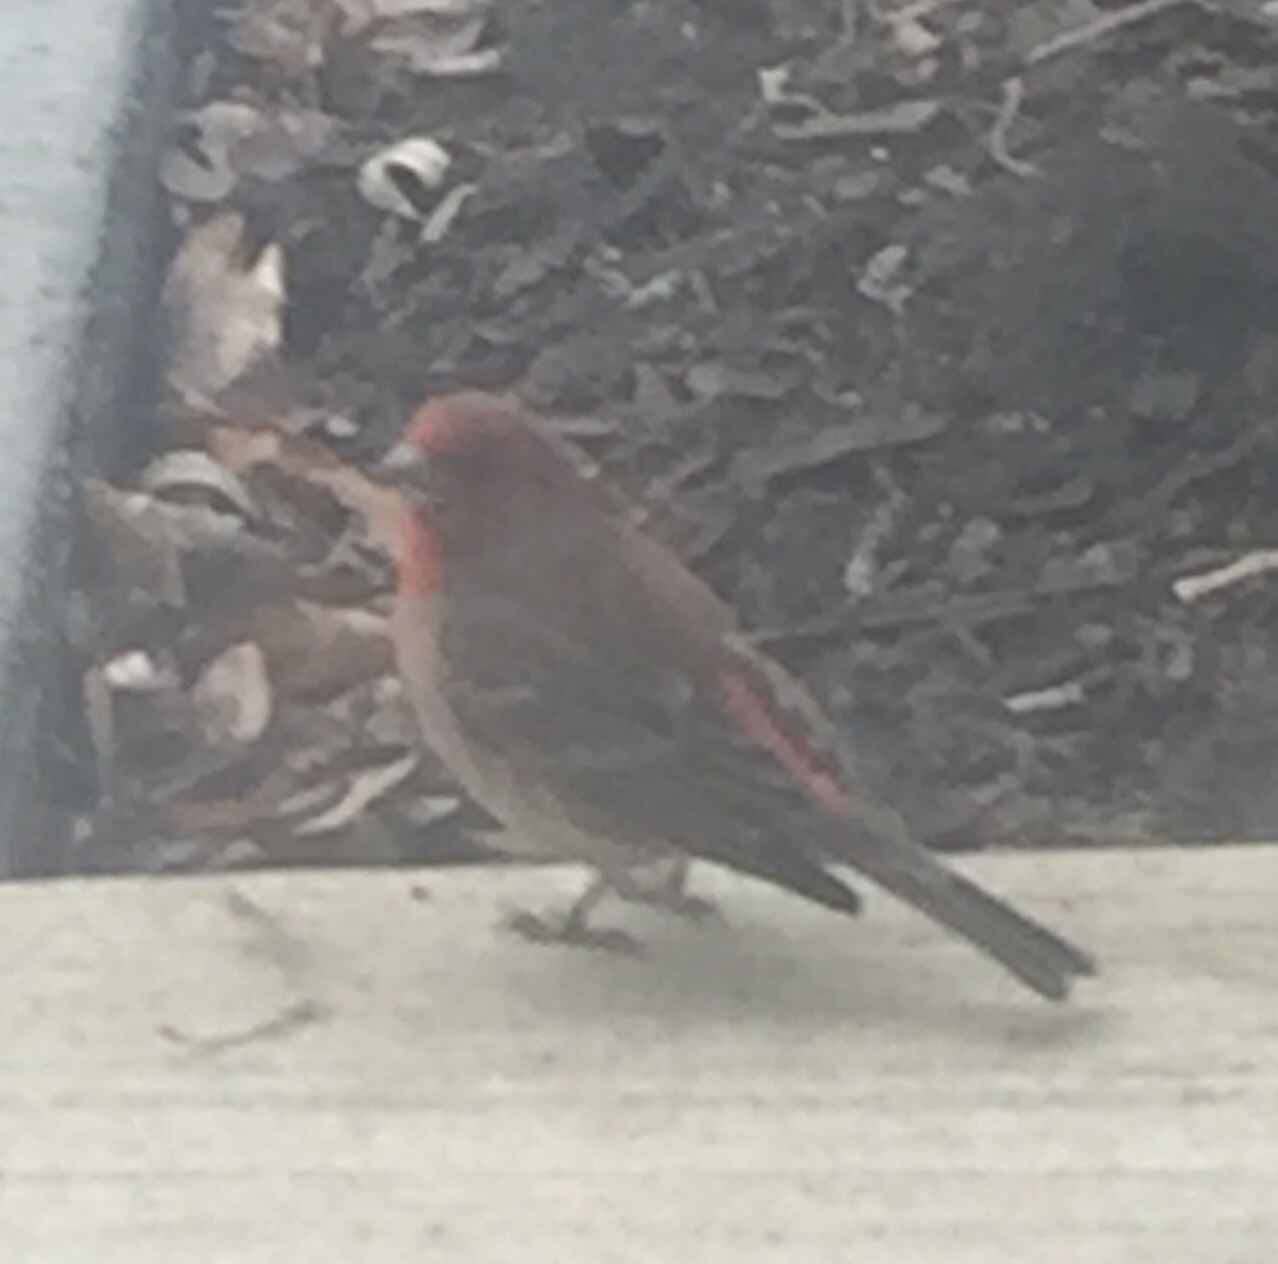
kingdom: Animalia
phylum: Chordata
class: Aves
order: Passeriformes
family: Fringillidae
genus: Haemorhous
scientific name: Haemorhous mexicanus
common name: House finch
